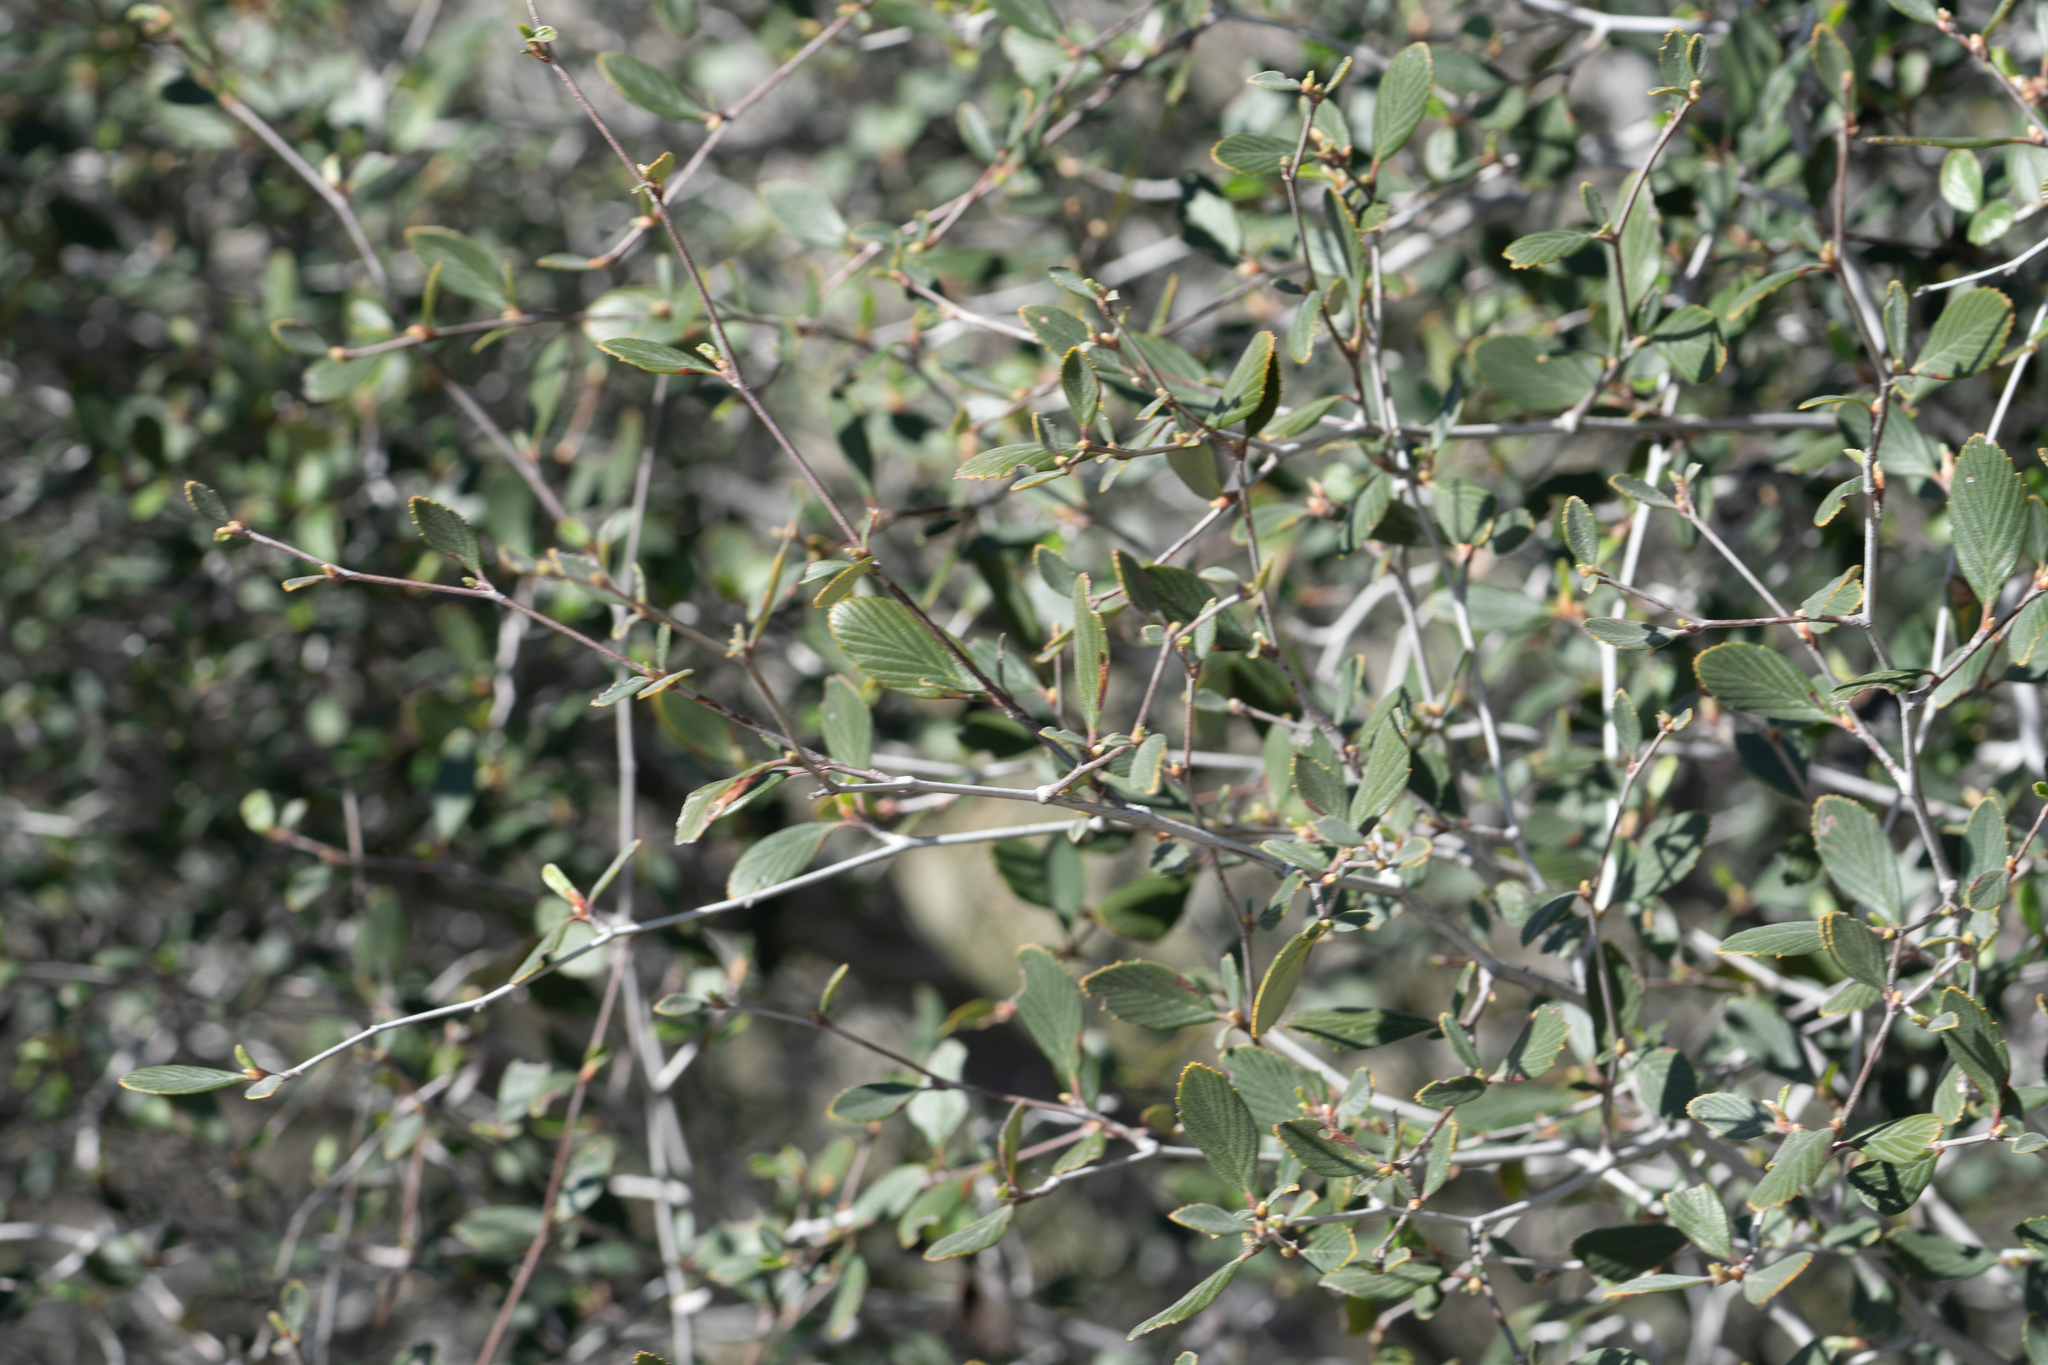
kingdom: Plantae
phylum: Tracheophyta
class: Magnoliopsida
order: Rosales
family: Rosaceae
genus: Cercocarpus
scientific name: Cercocarpus betuloides
